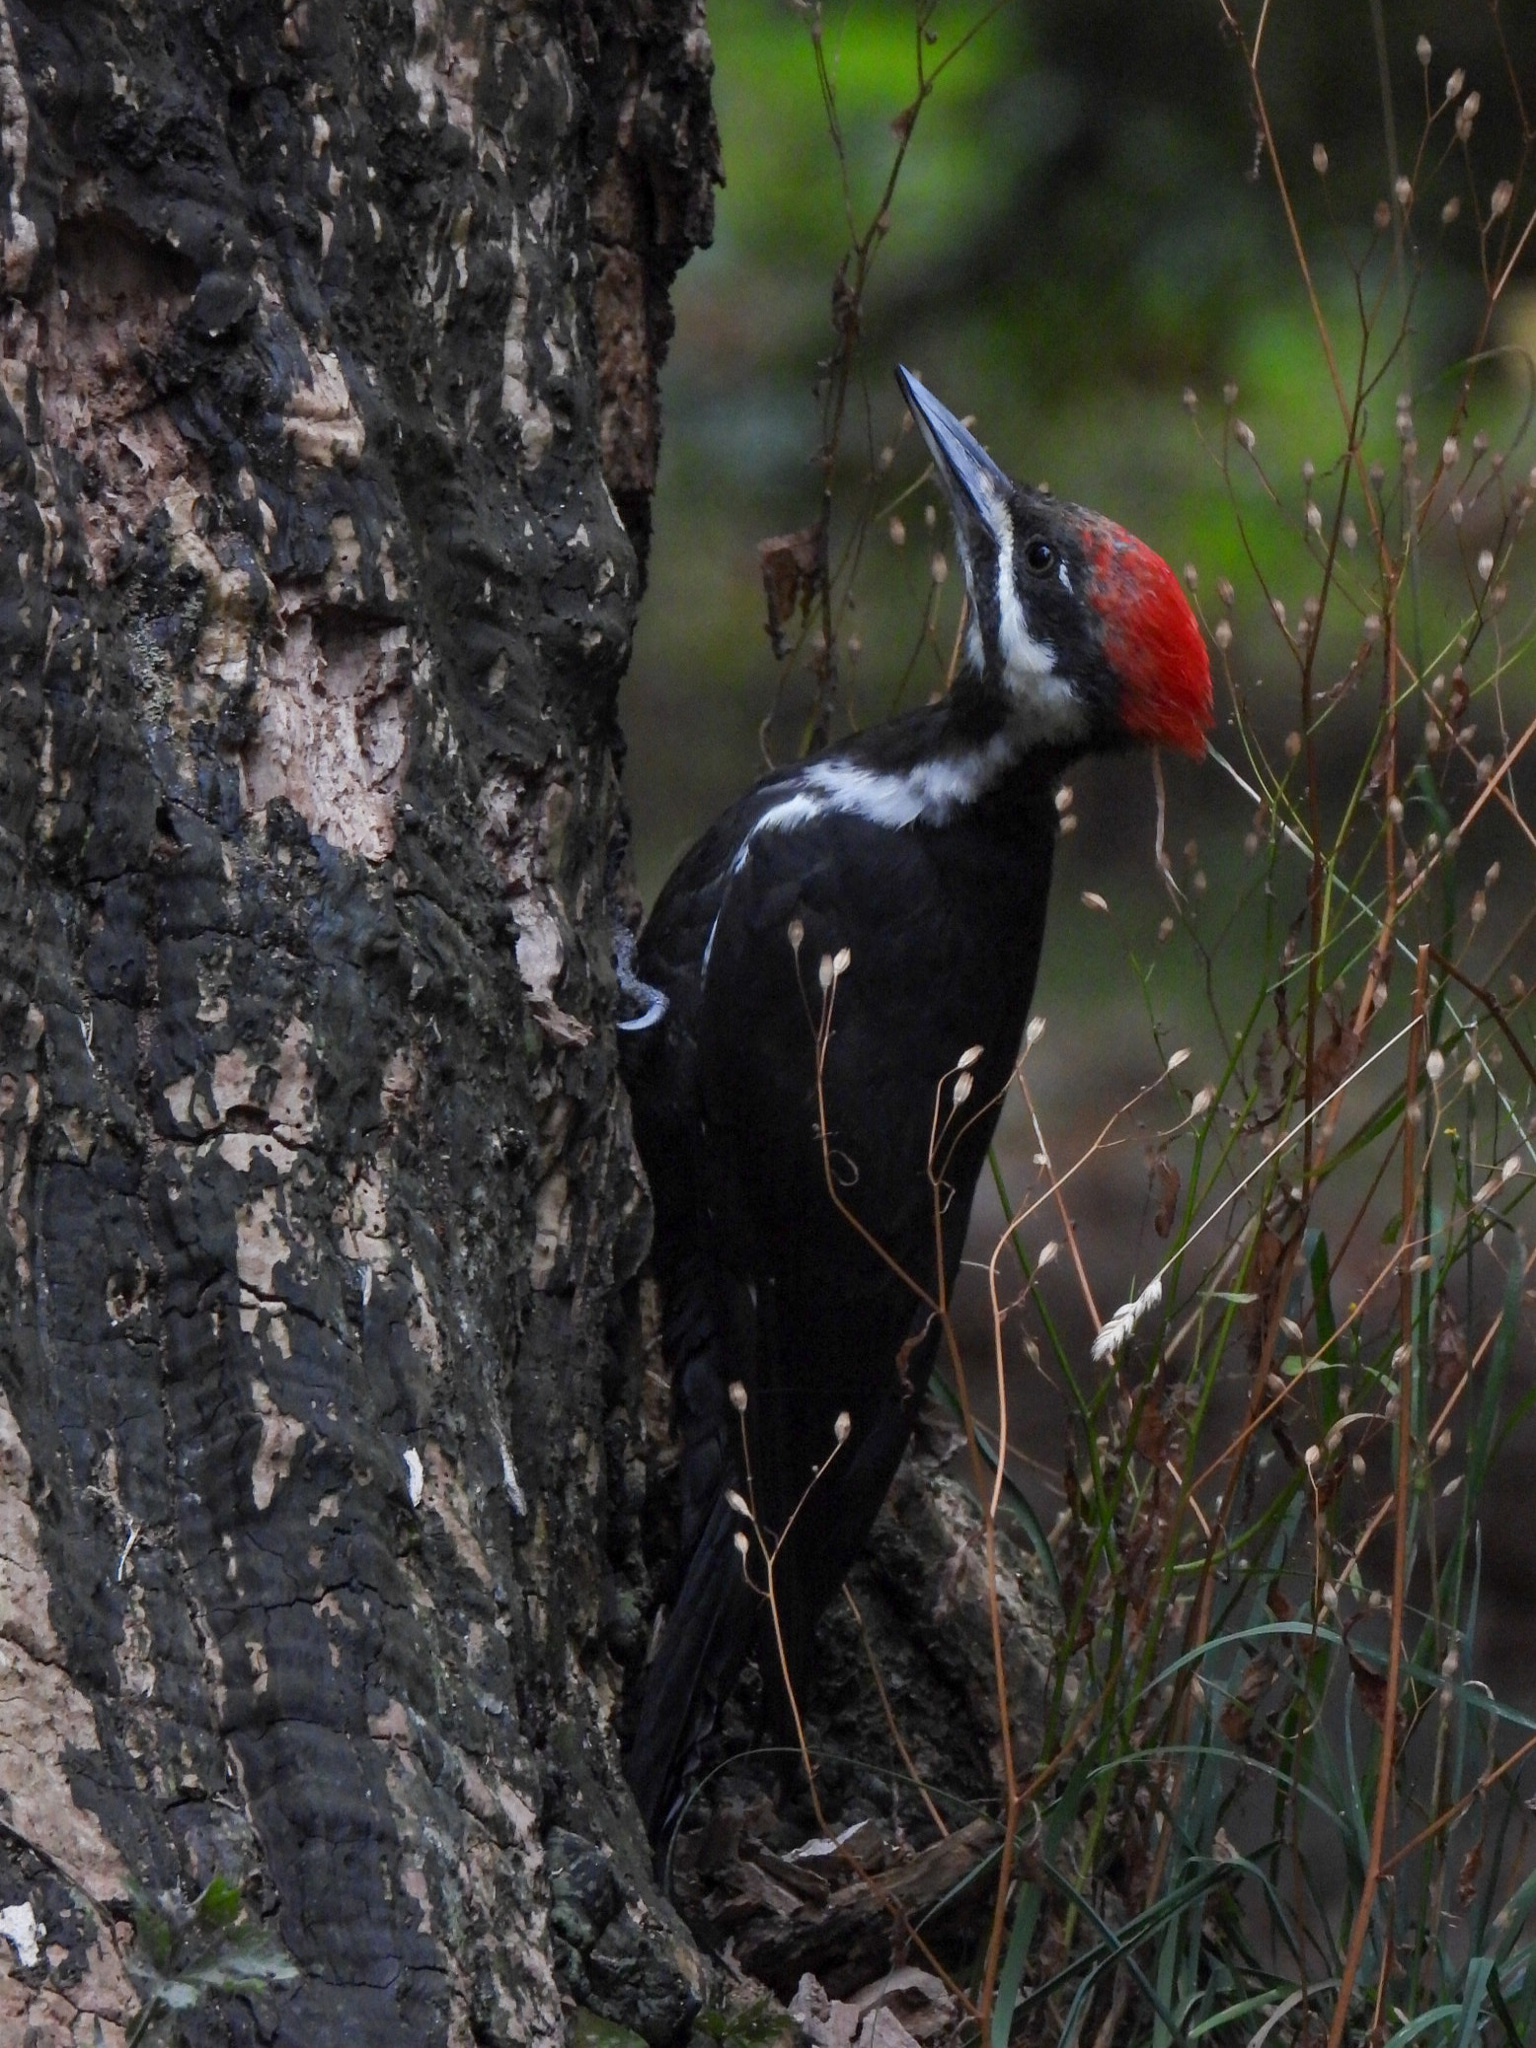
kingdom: Animalia
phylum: Chordata
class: Aves
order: Piciformes
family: Picidae
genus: Dryocopus
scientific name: Dryocopus pileatus
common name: Pileated woodpecker
